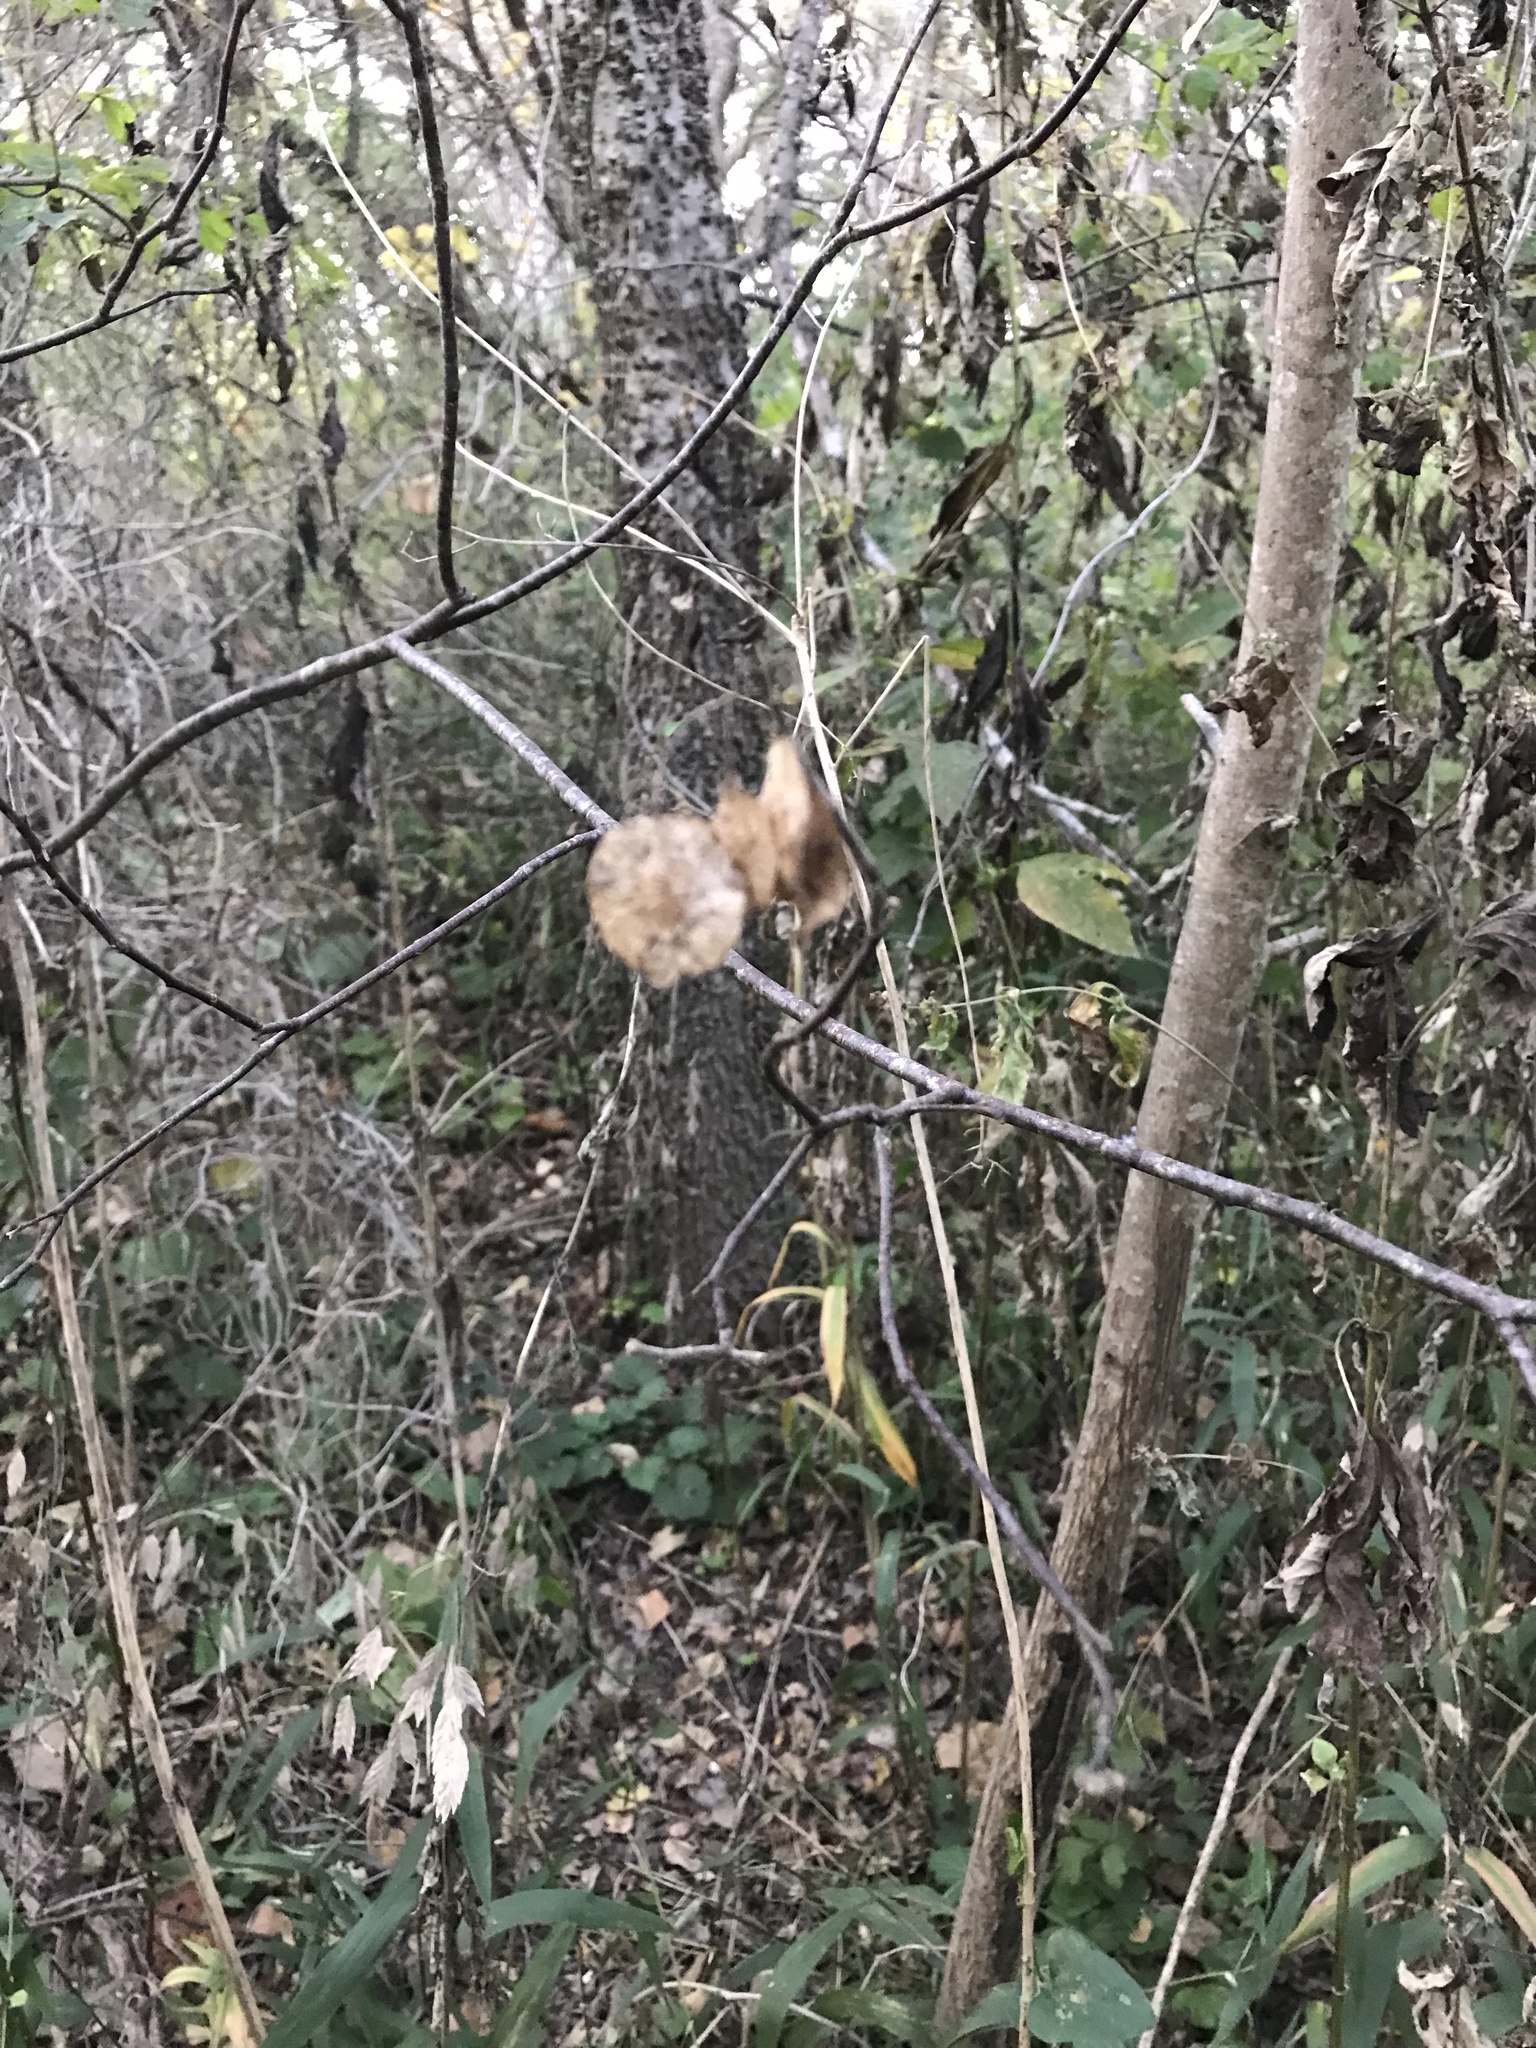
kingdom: Plantae
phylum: Tracheophyta
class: Magnoliopsida
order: Sapindales
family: Rutaceae
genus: Ptelea
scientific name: Ptelea trifoliata
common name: Common hop-tree
